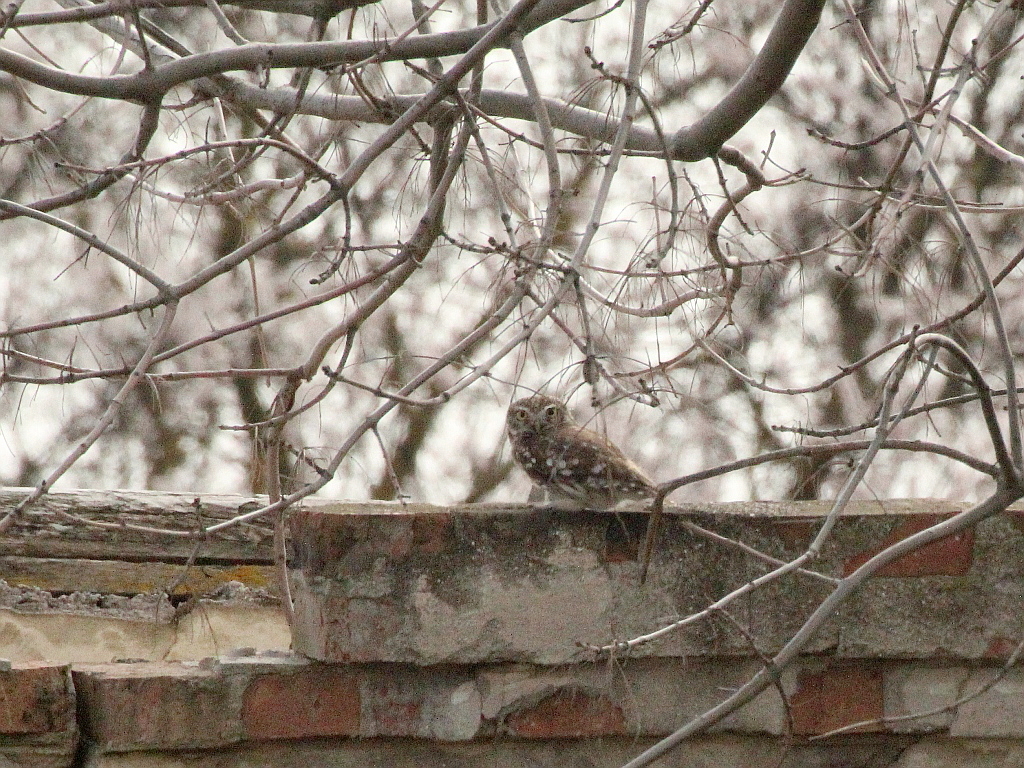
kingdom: Animalia
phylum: Chordata
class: Aves
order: Strigiformes
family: Strigidae
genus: Athene
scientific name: Athene noctua
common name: Little owl
